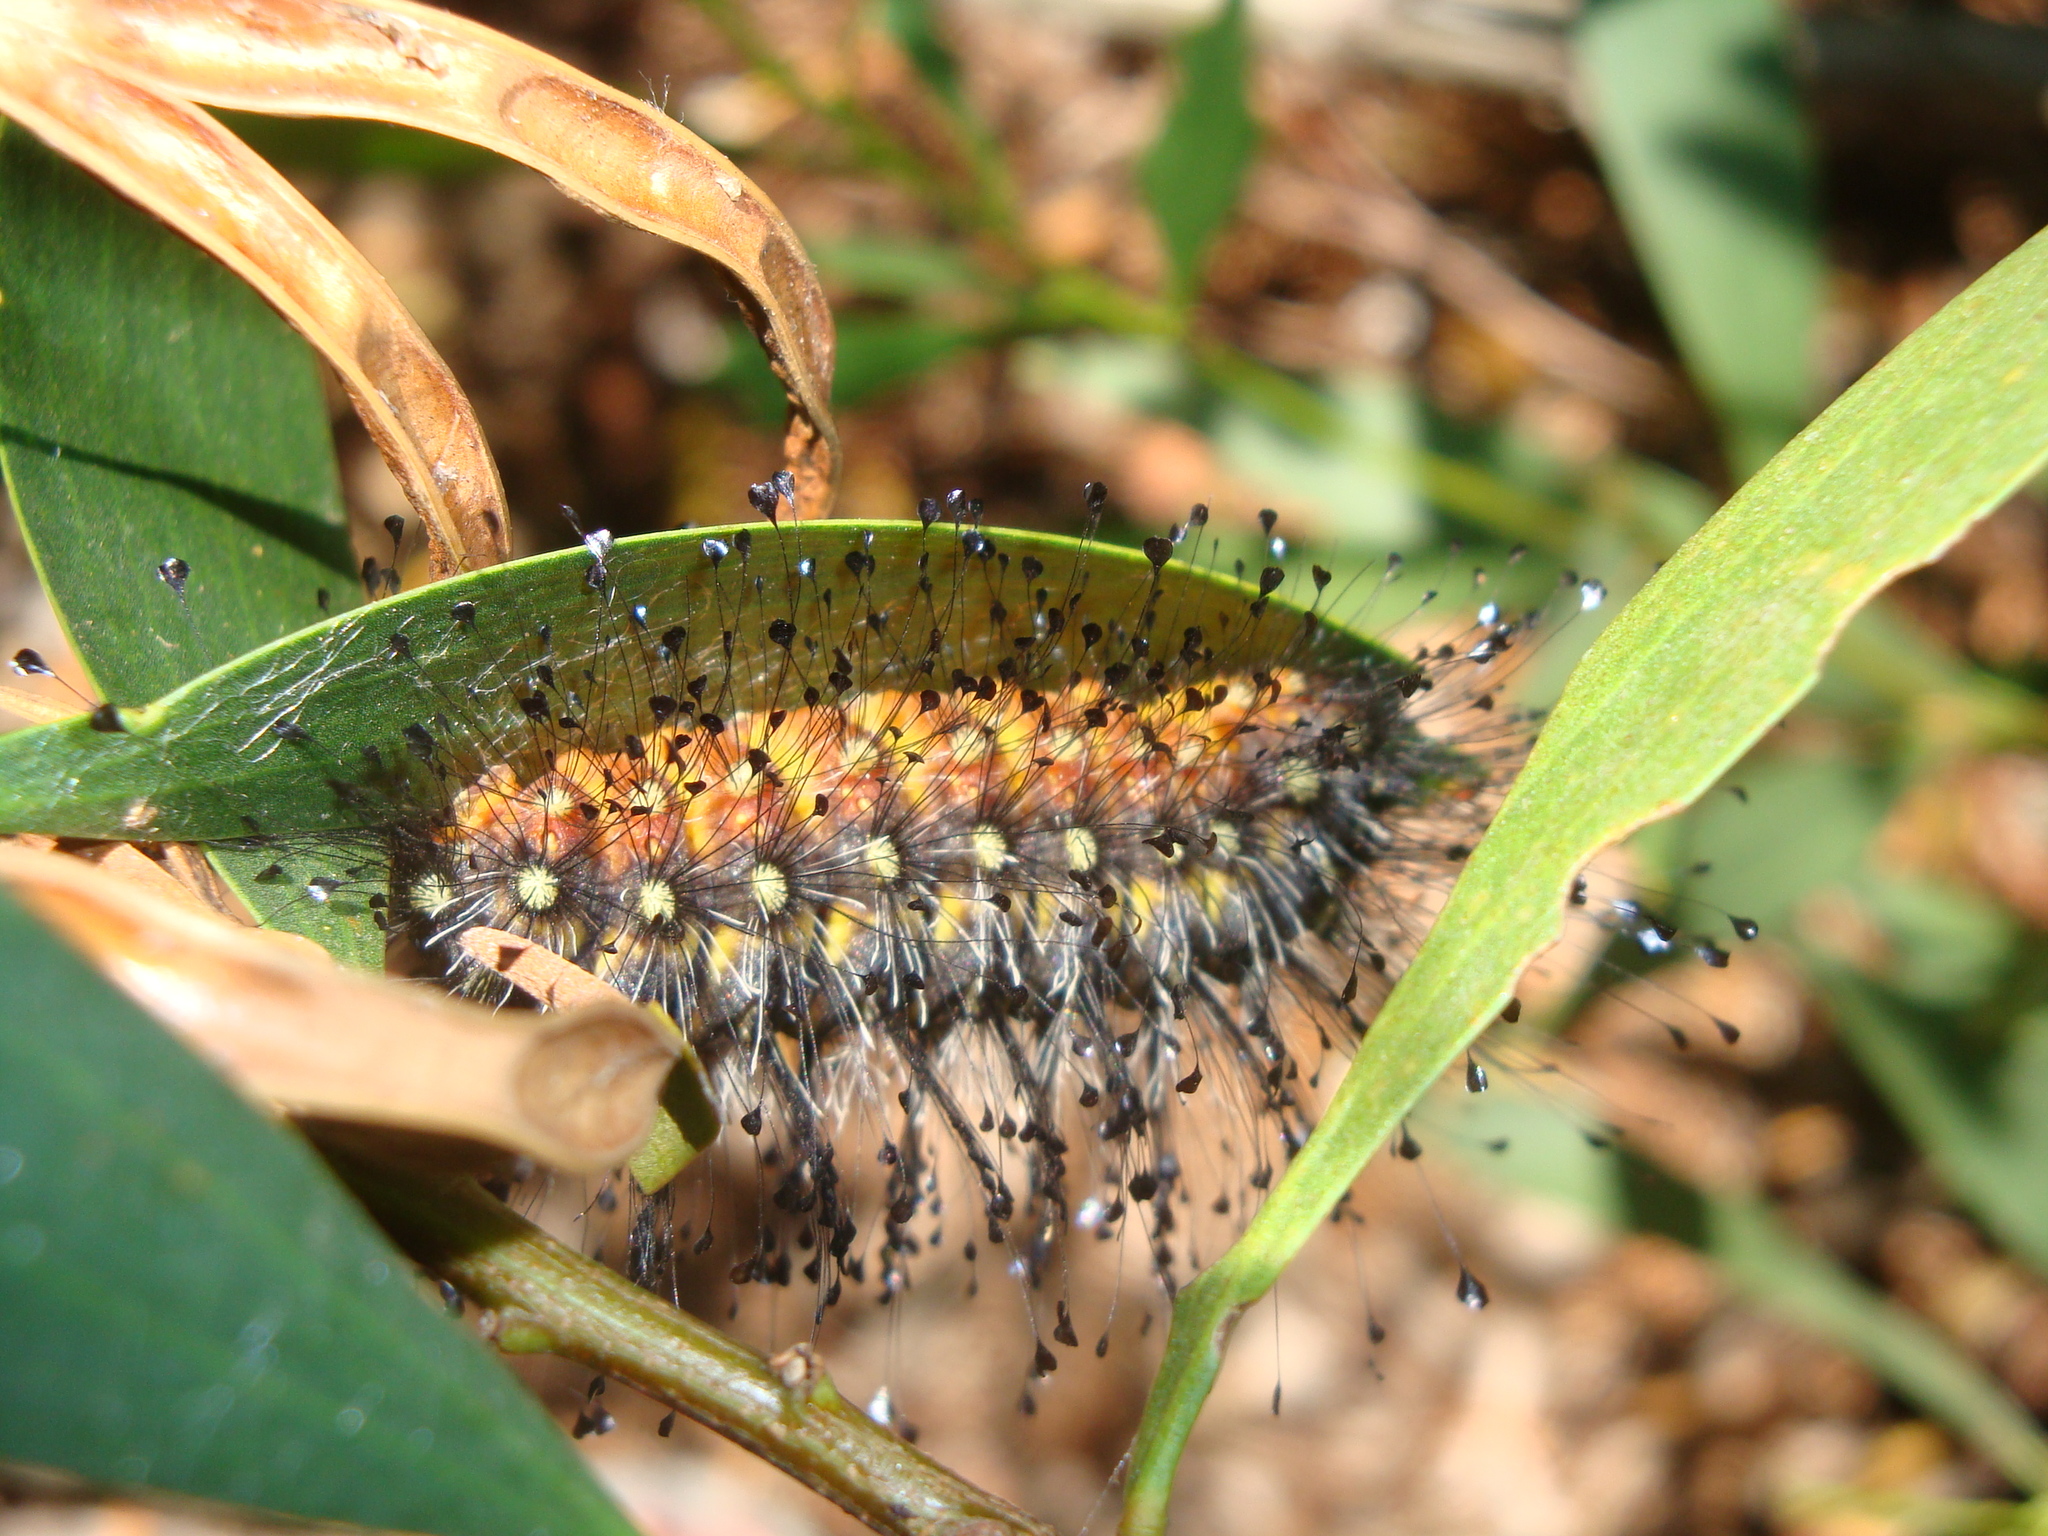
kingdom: Animalia
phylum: Arthropoda
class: Insecta
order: Lepidoptera
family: Megalopygidae
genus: Megalopyge
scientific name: Megalopyge urens
